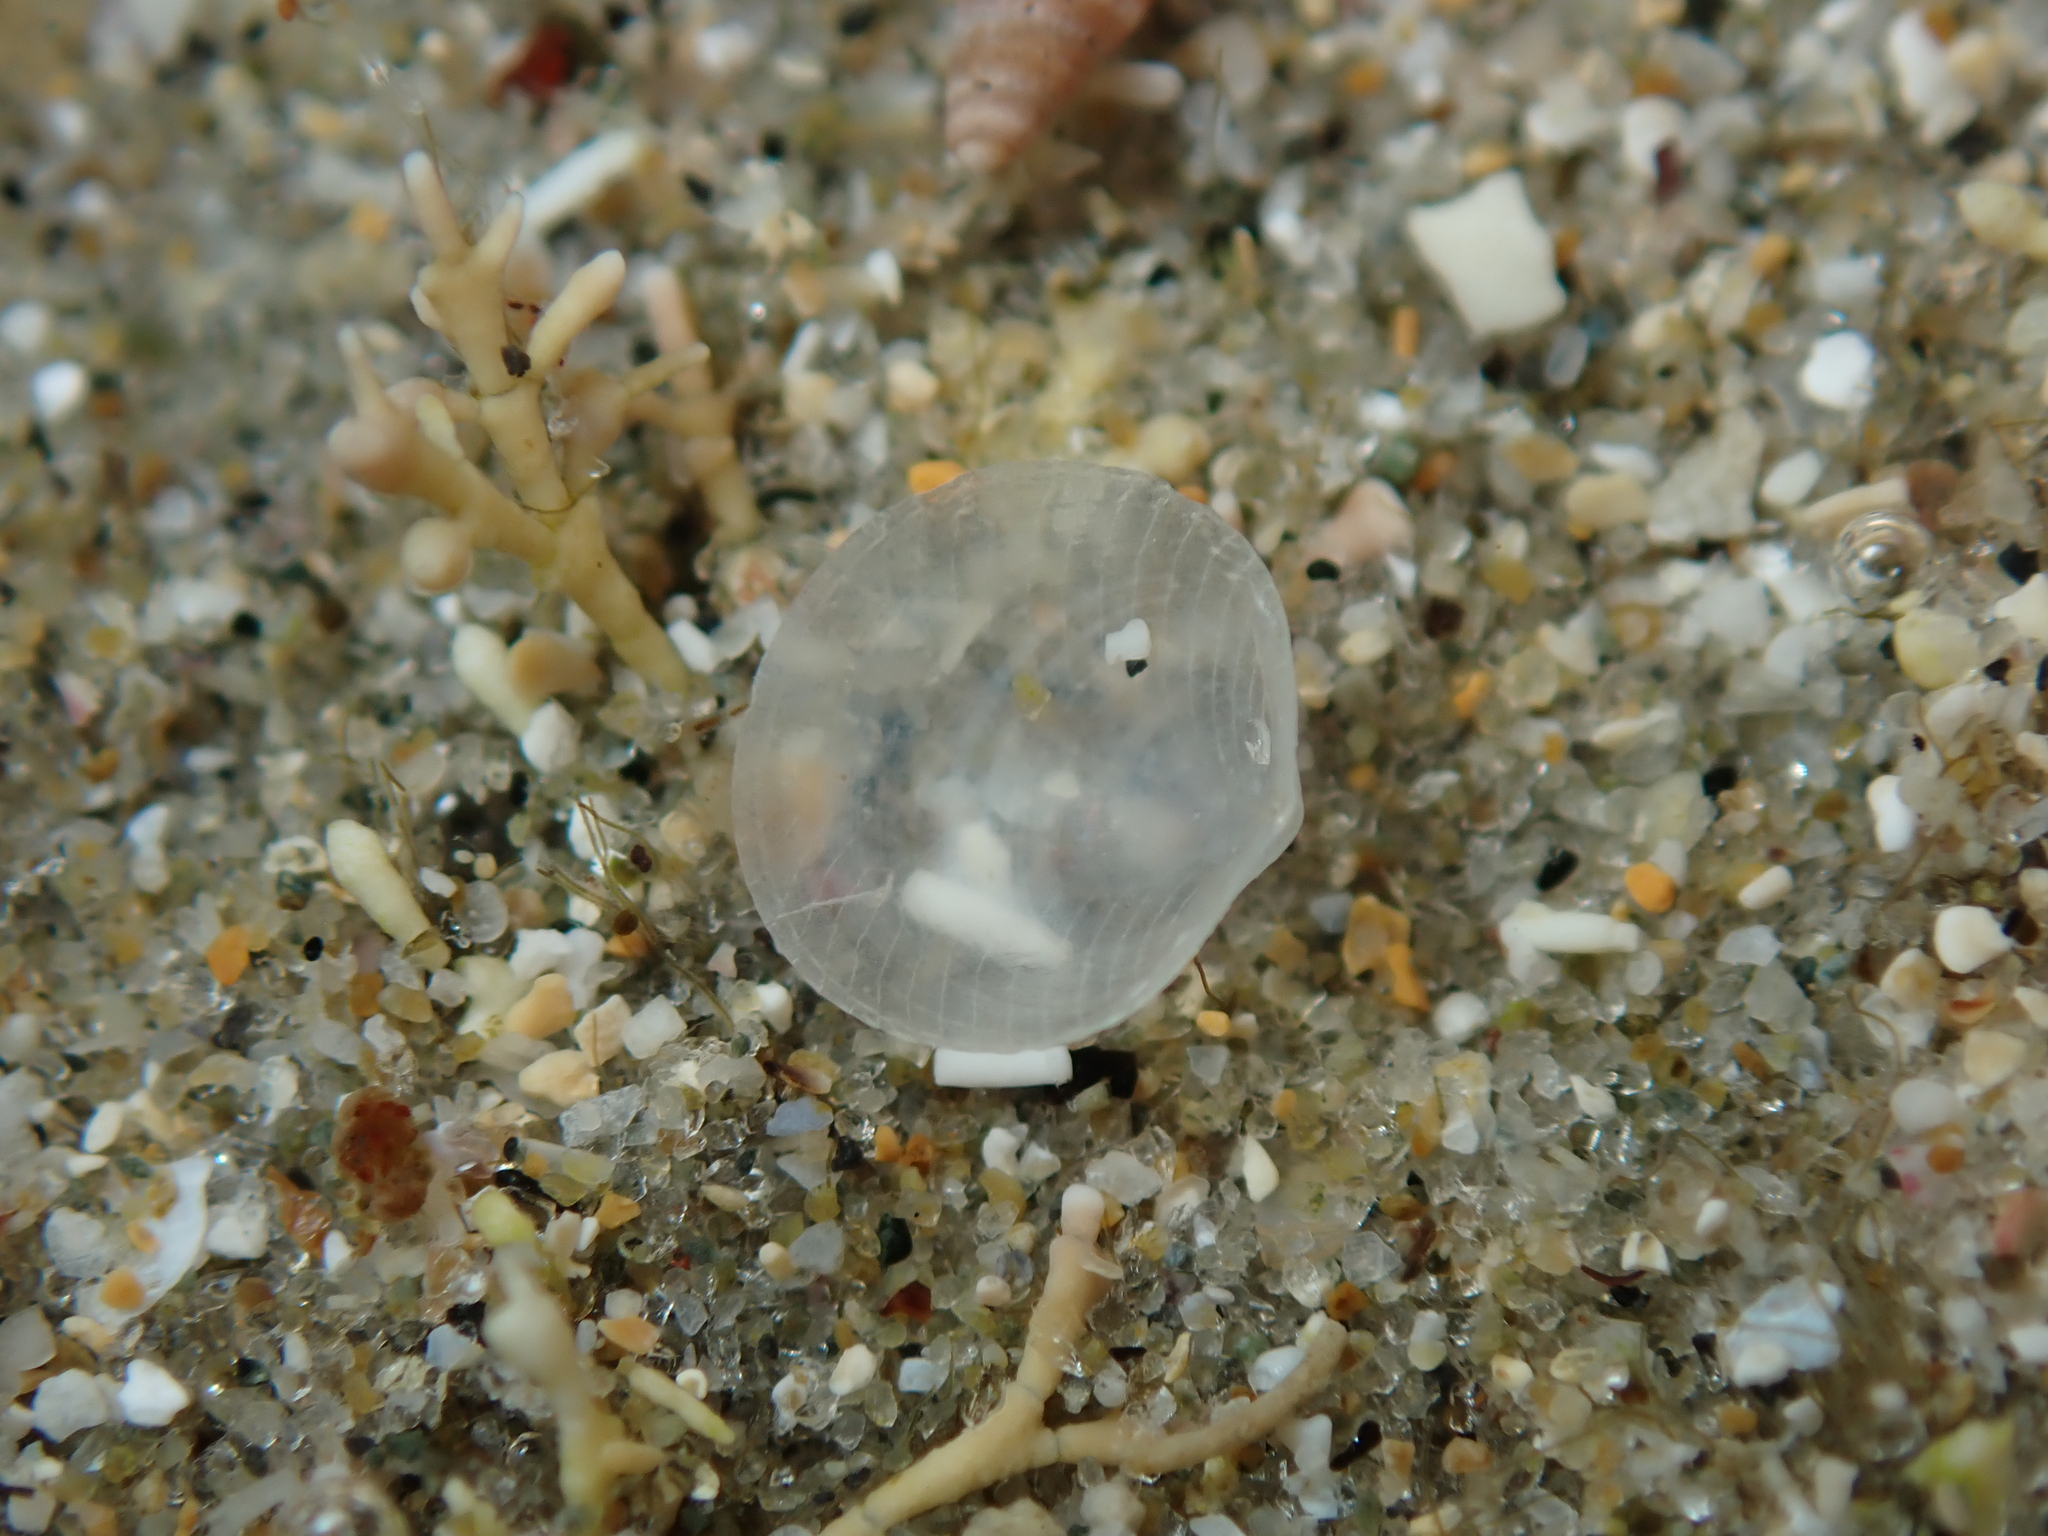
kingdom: Animalia
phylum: Mollusca
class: Bivalvia
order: Galeommatida
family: Lasaeidae
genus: Myllita
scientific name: Myllita vivens
